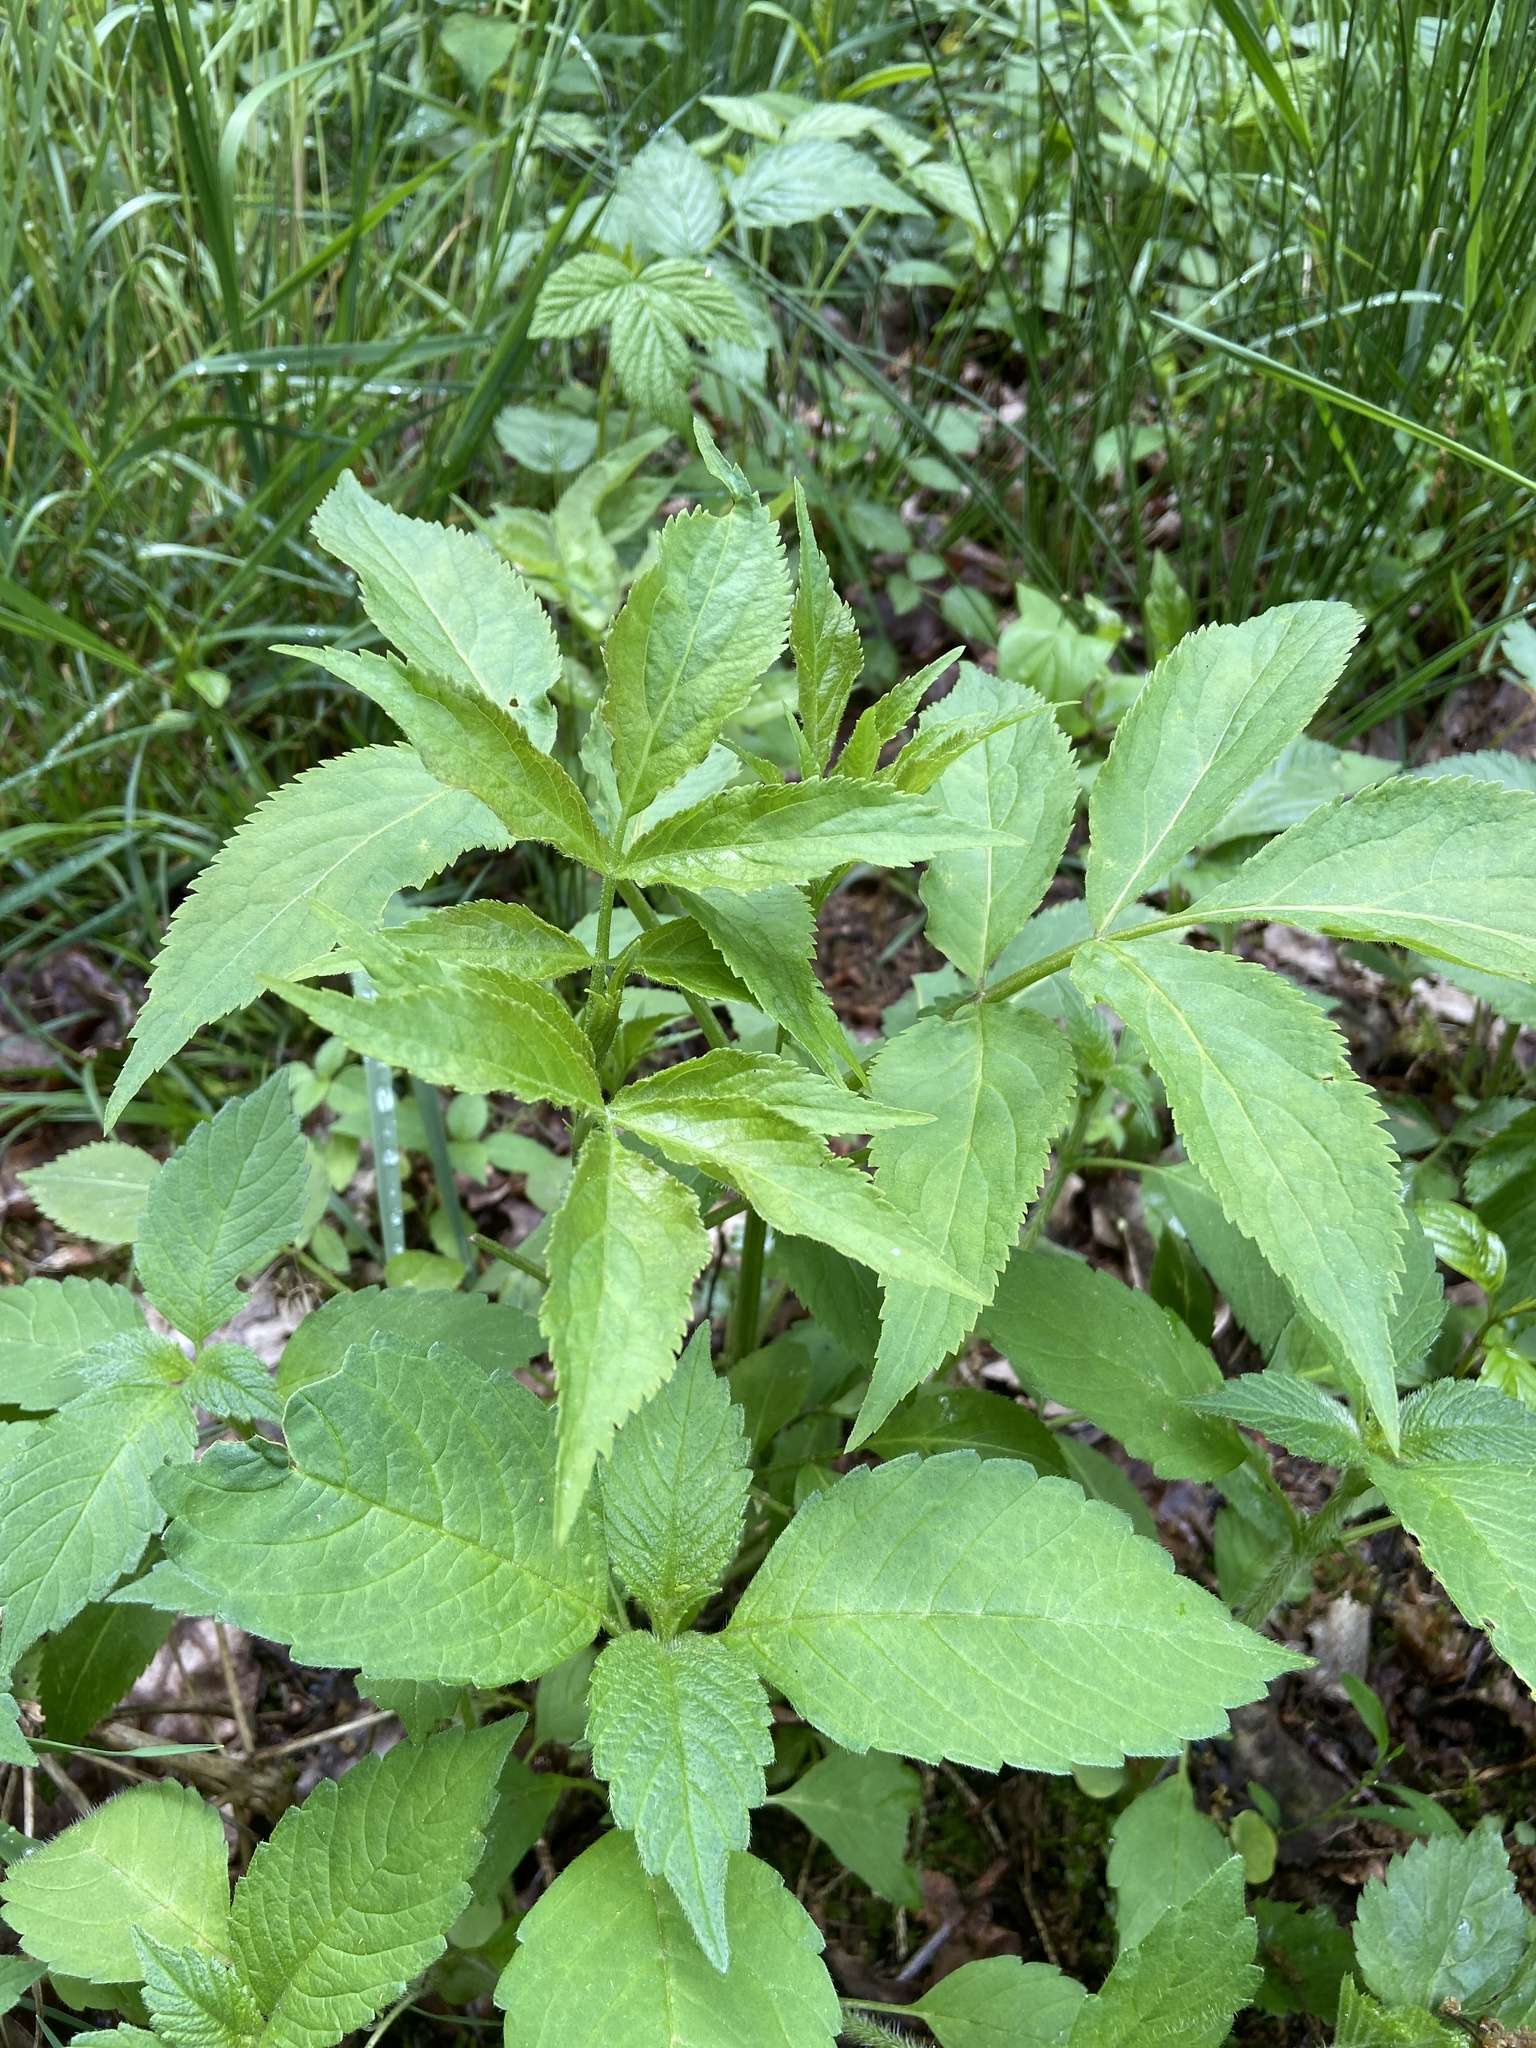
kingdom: Plantae
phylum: Tracheophyta
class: Magnoliopsida
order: Dipsacales
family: Viburnaceae
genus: Sambucus
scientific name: Sambucus nigra
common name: Elder
